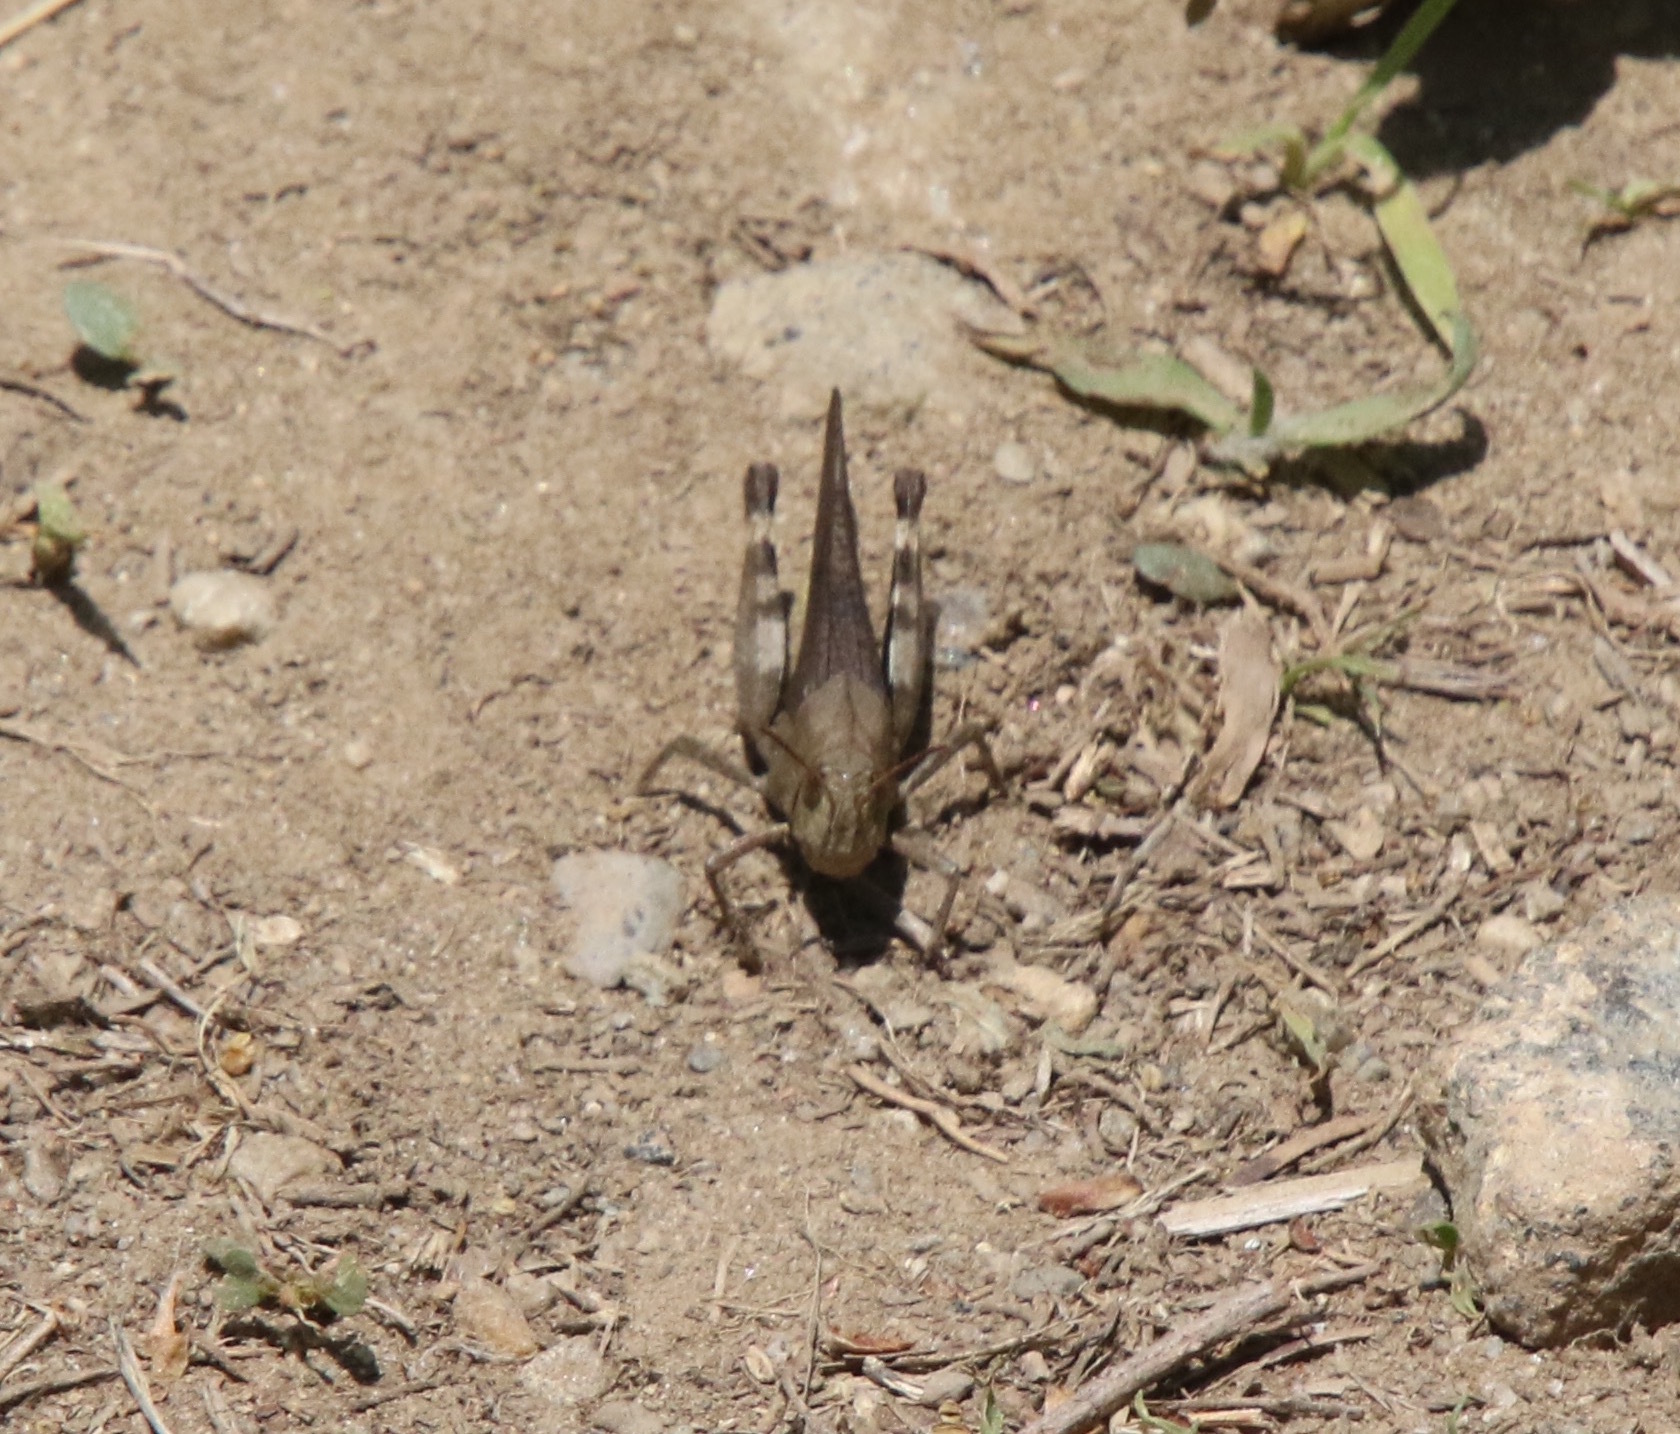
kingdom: Animalia
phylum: Arthropoda
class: Insecta
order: Orthoptera
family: Acrididae
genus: Arphia
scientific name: Arphia sulphurea
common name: Spring yellow-winged locust
